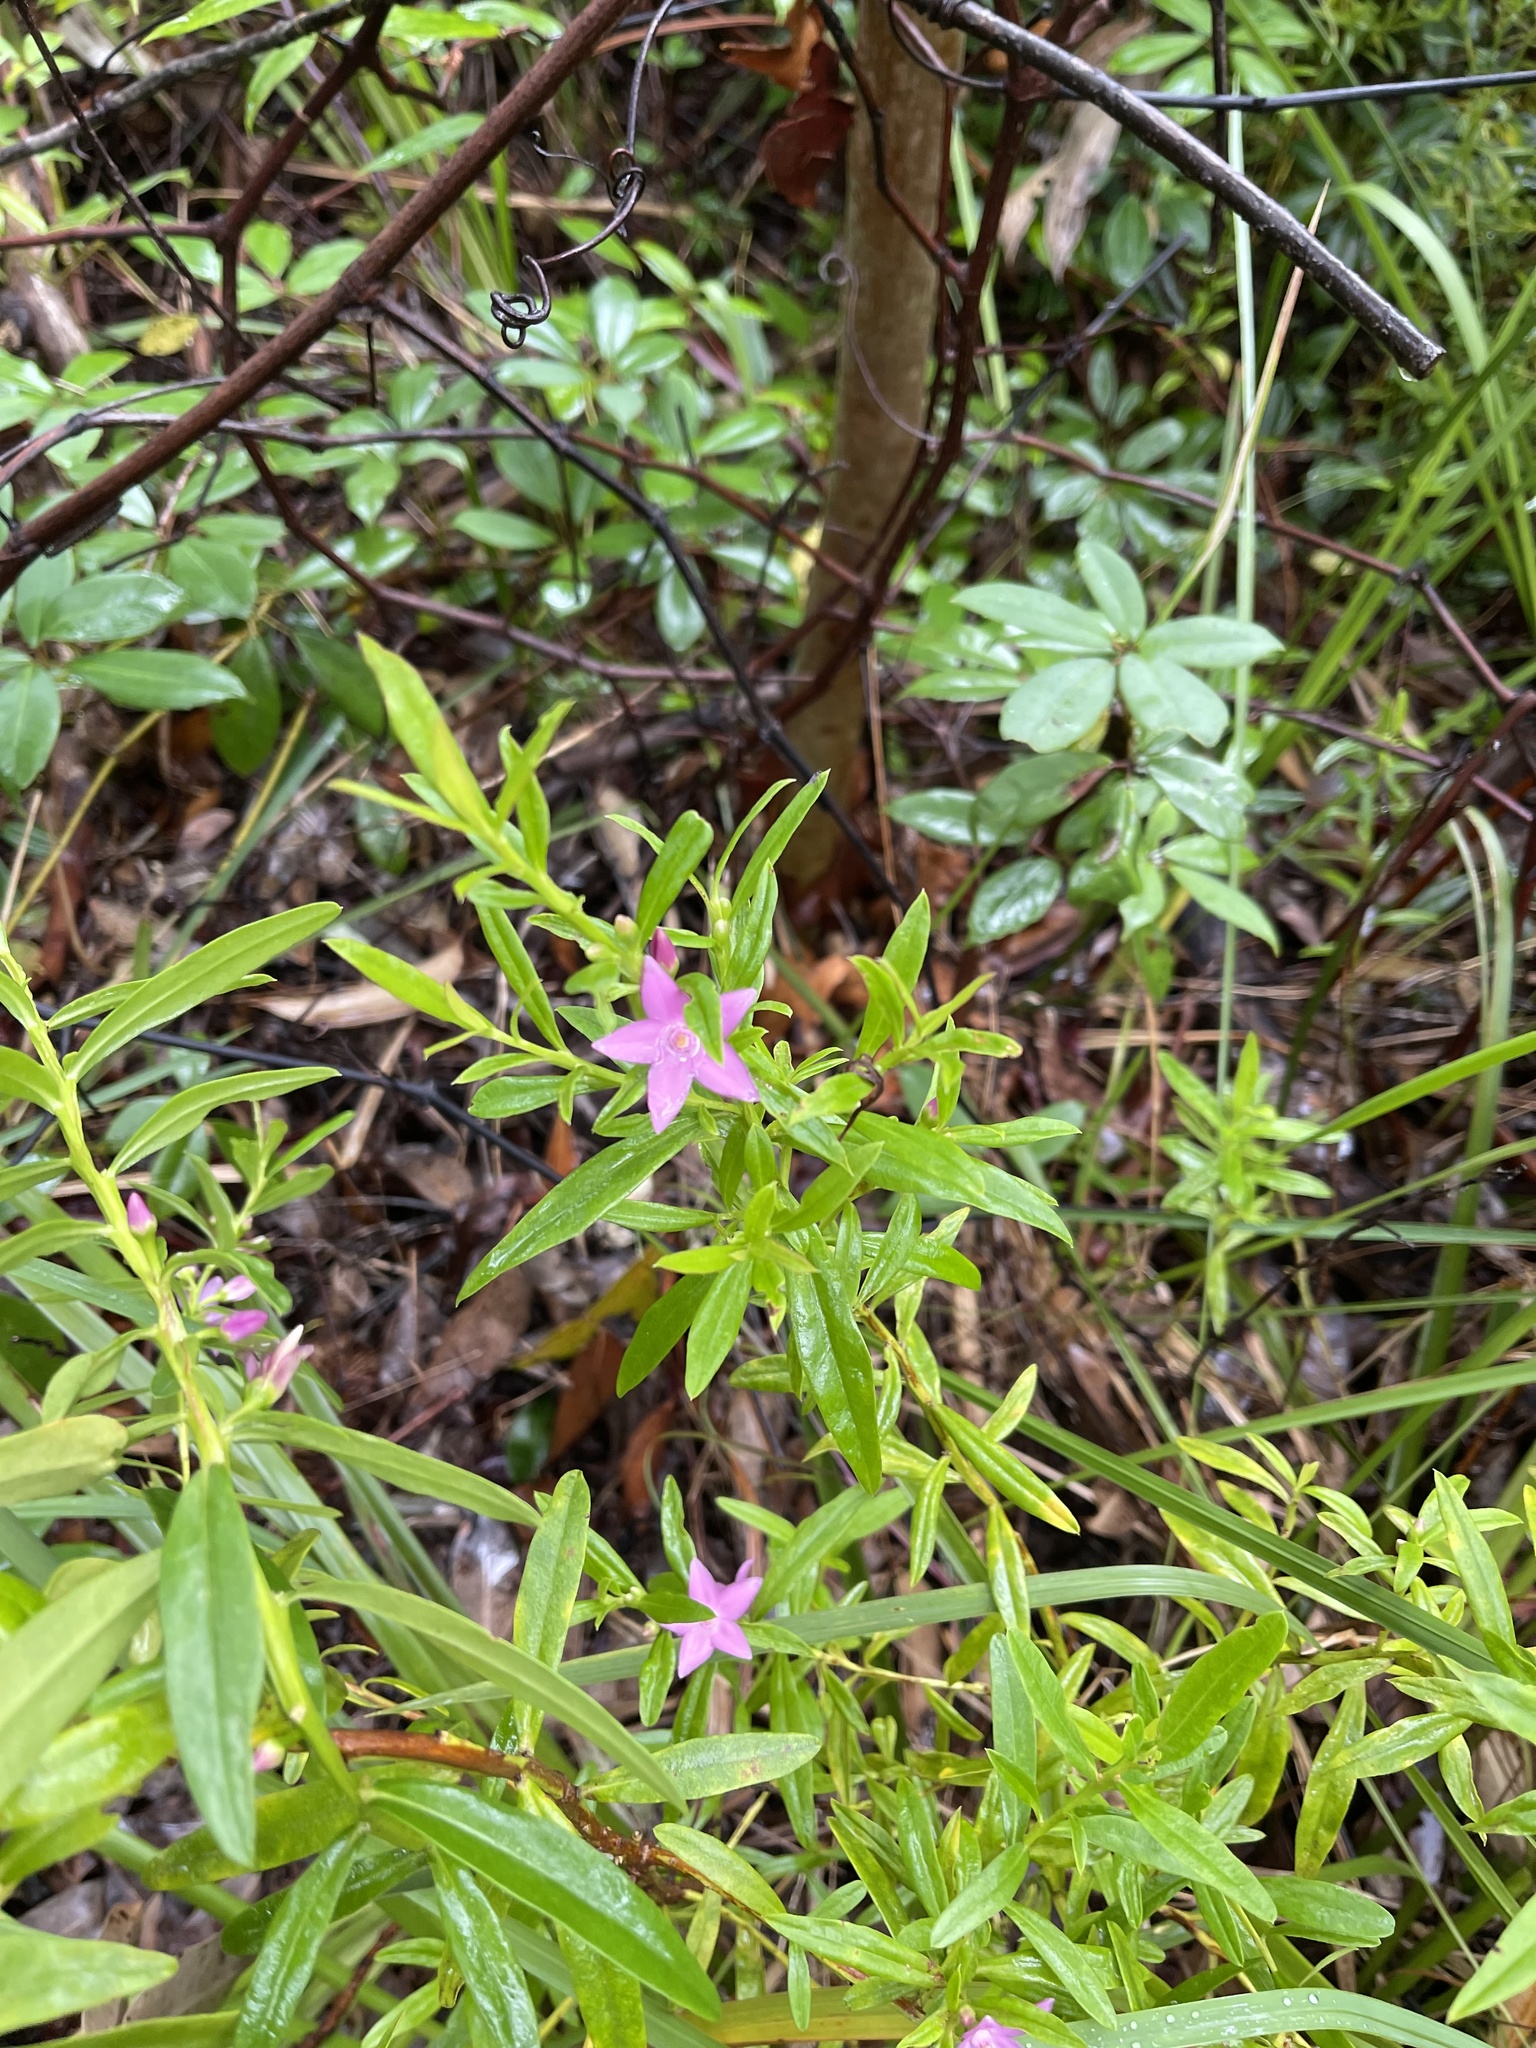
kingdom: Plantae
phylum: Tracheophyta
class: Magnoliopsida
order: Sapindales
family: Rutaceae
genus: Crowea
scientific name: Crowea saligna
